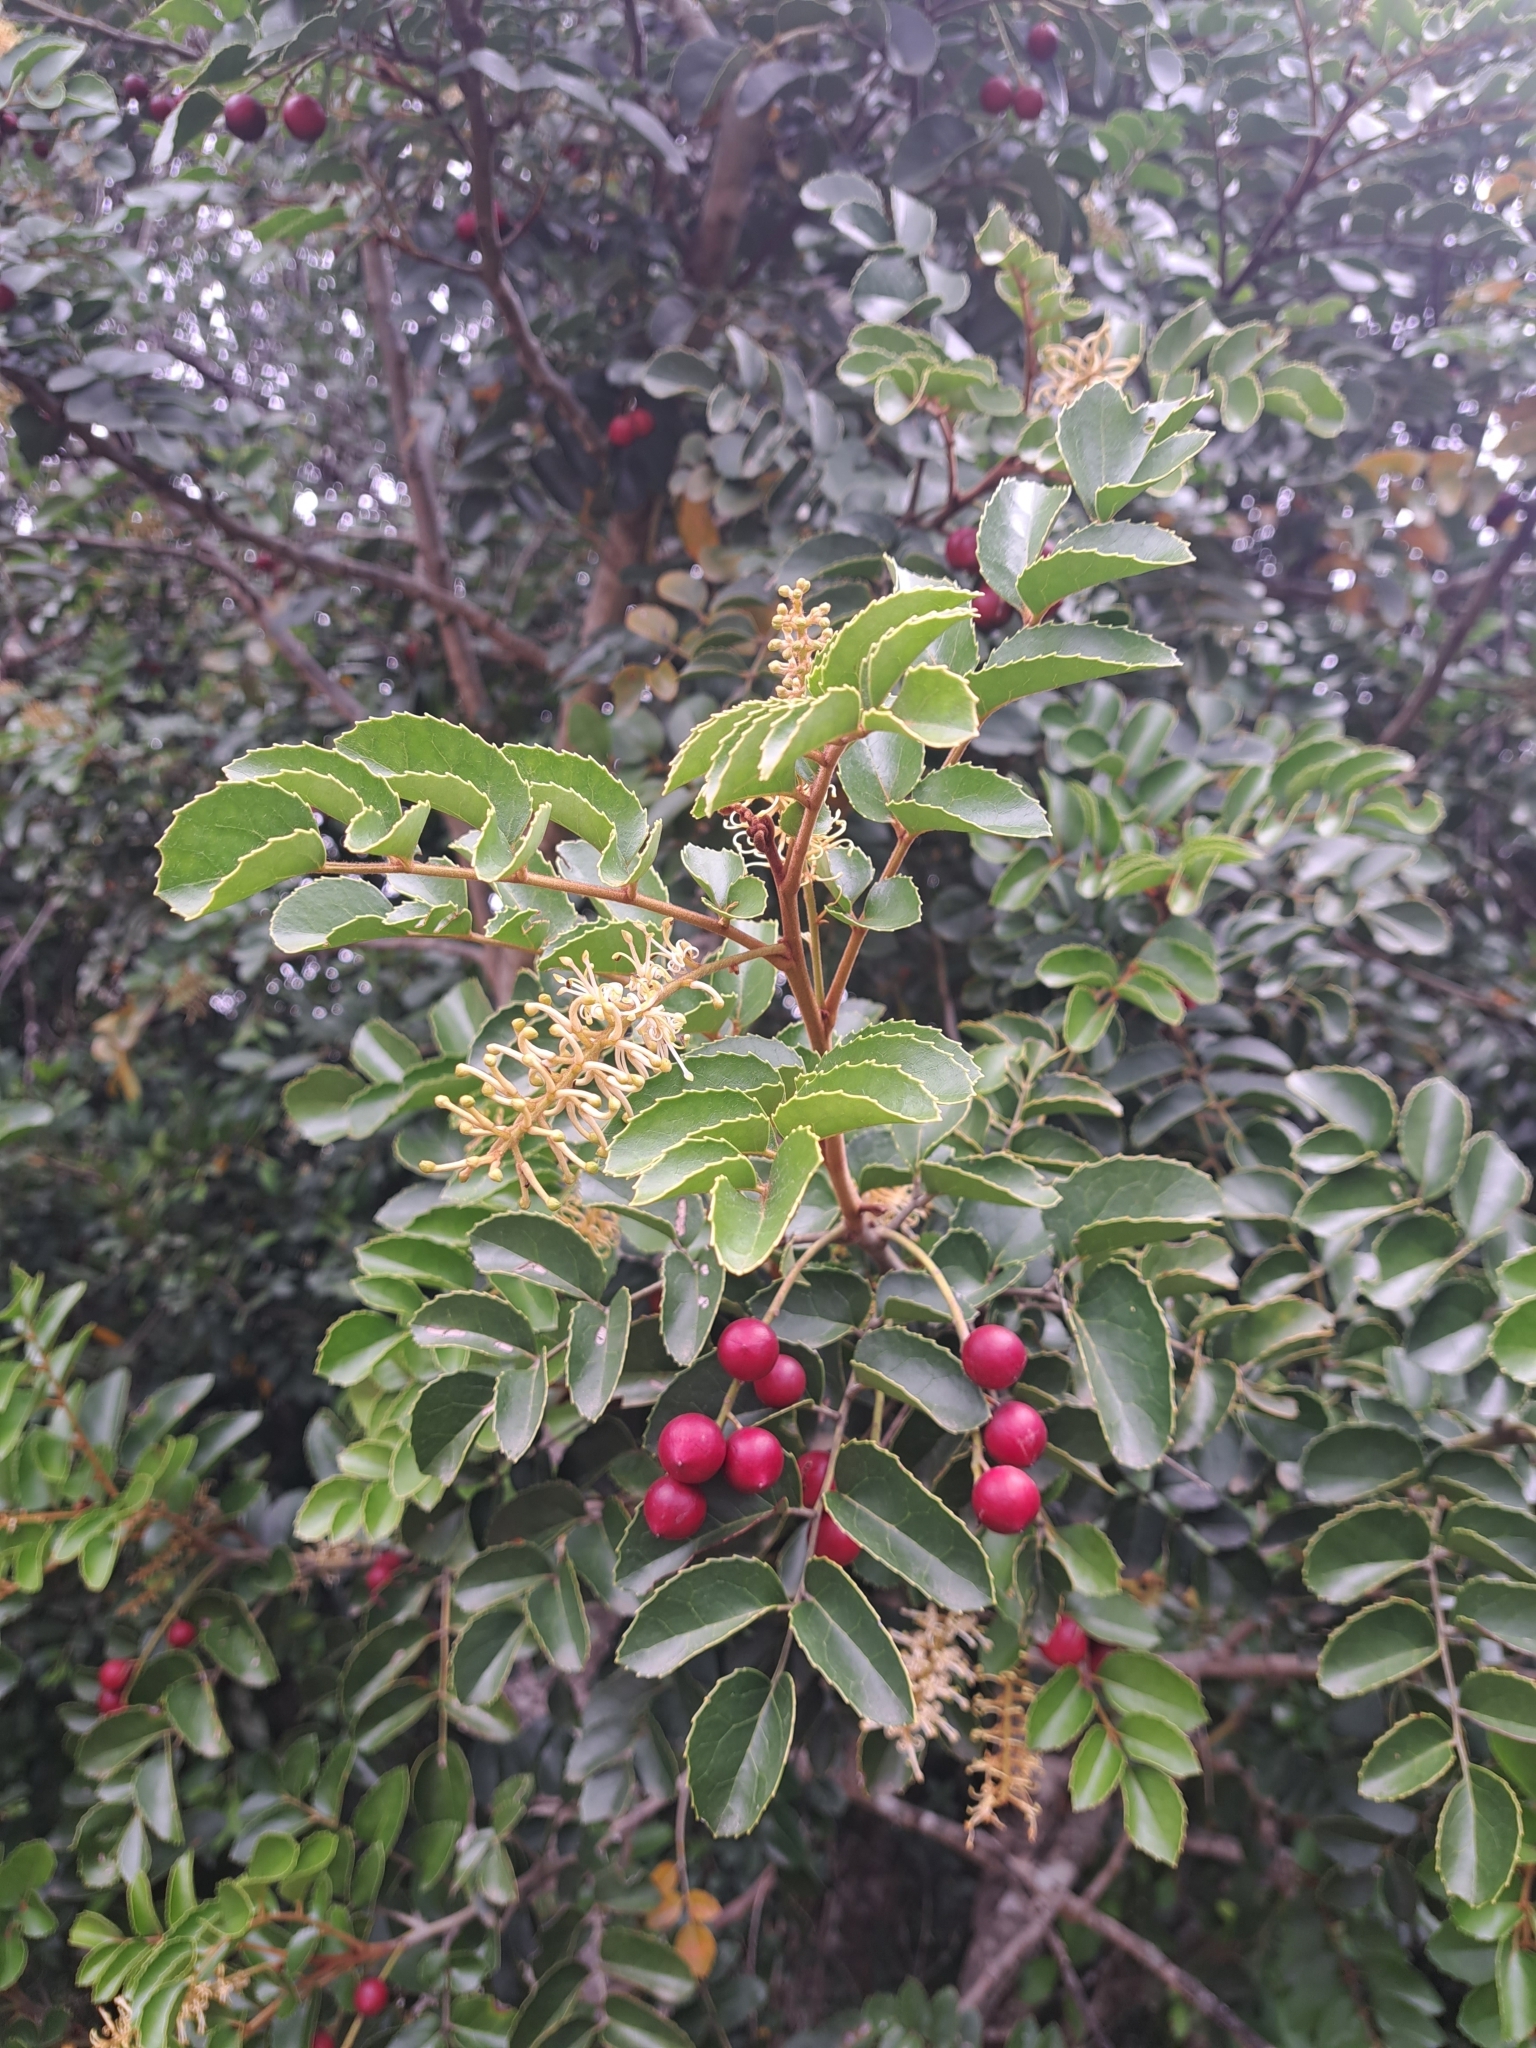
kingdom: Plantae
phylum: Tracheophyta
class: Magnoliopsida
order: Proteales
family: Proteaceae
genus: Gevuina
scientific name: Gevuina avellana
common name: Chilean hazel
